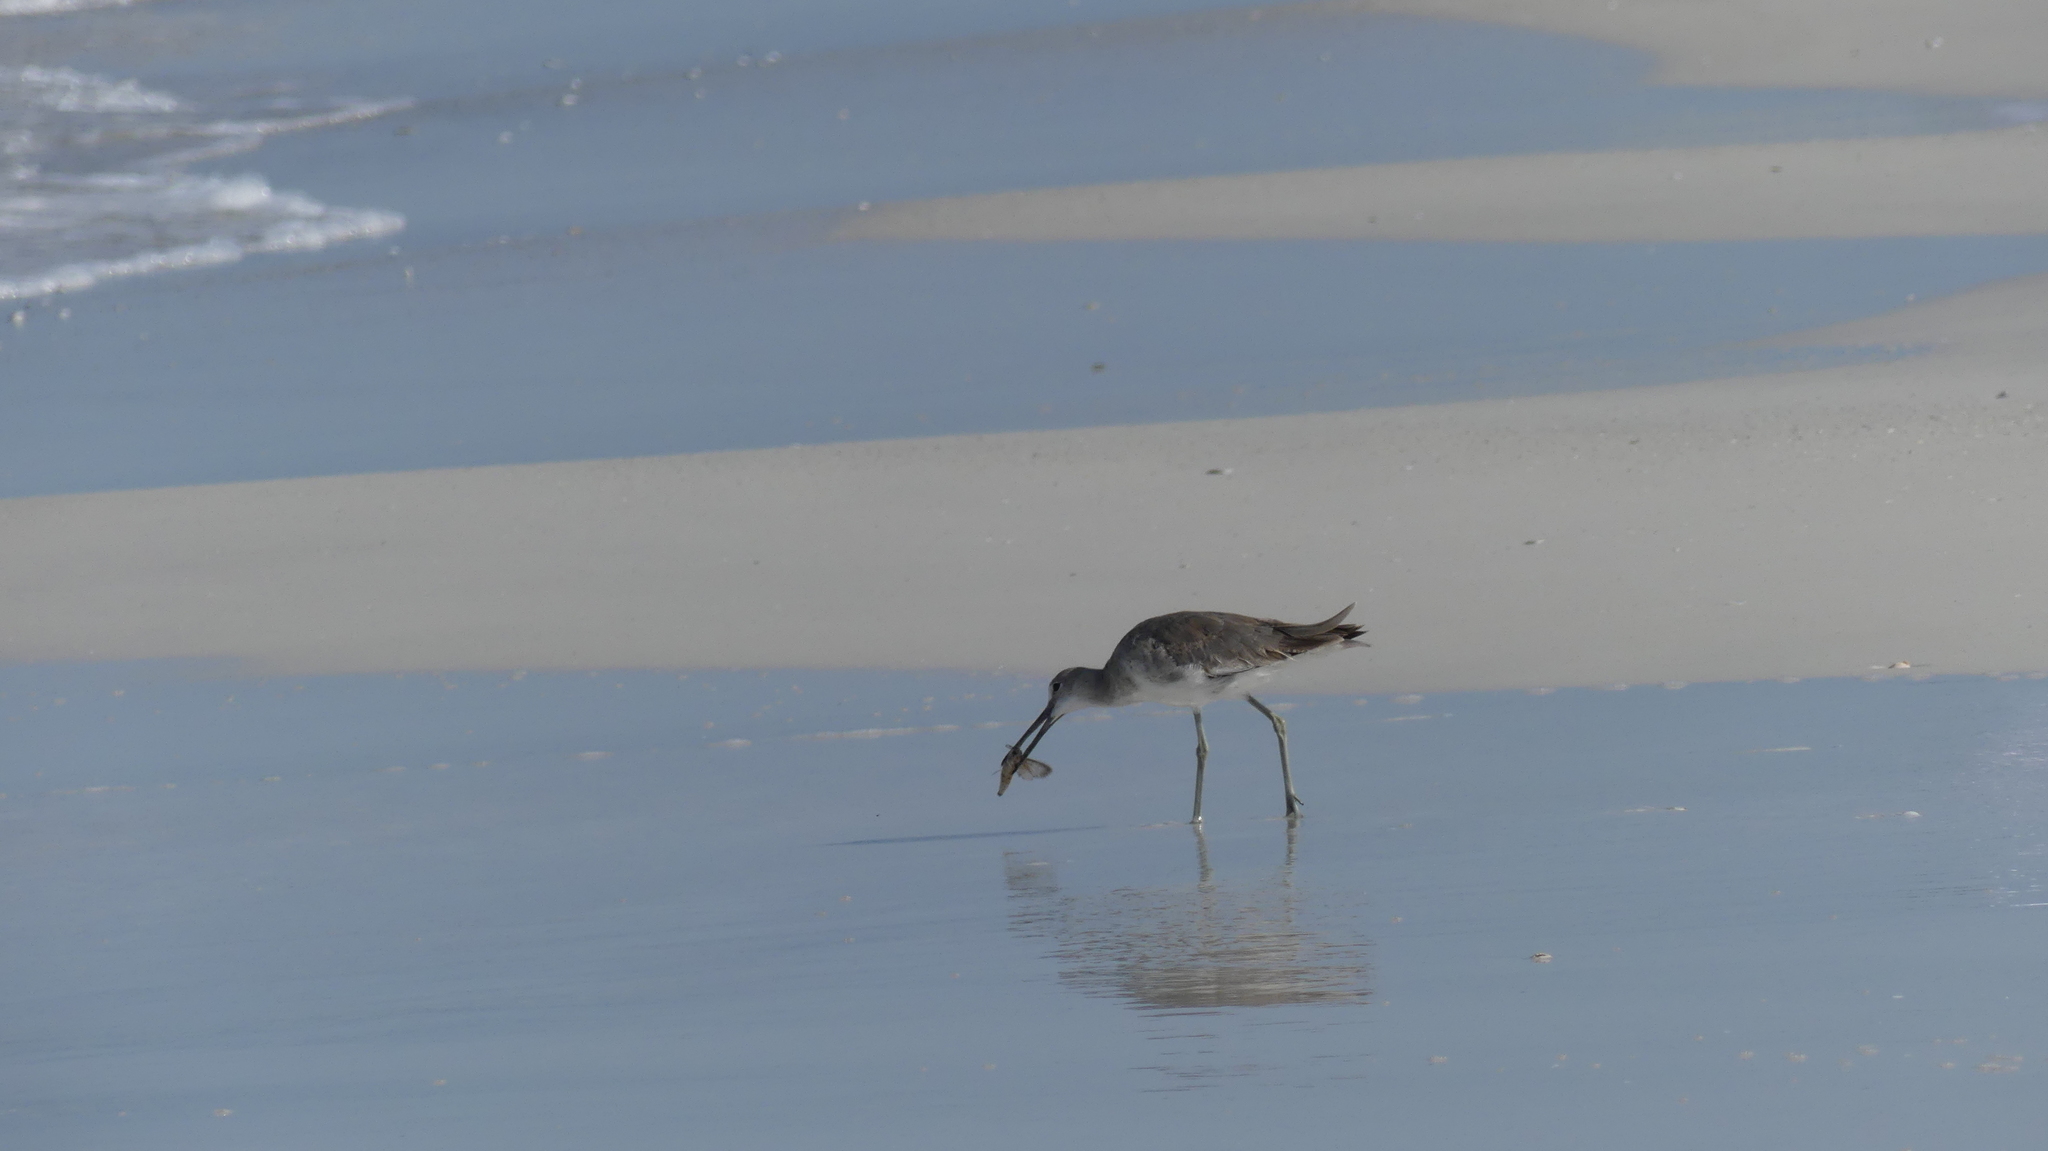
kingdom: Animalia
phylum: Chordata
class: Aves
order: Charadriiformes
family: Scolopacidae
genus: Tringa
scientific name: Tringa semipalmata
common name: Willet
